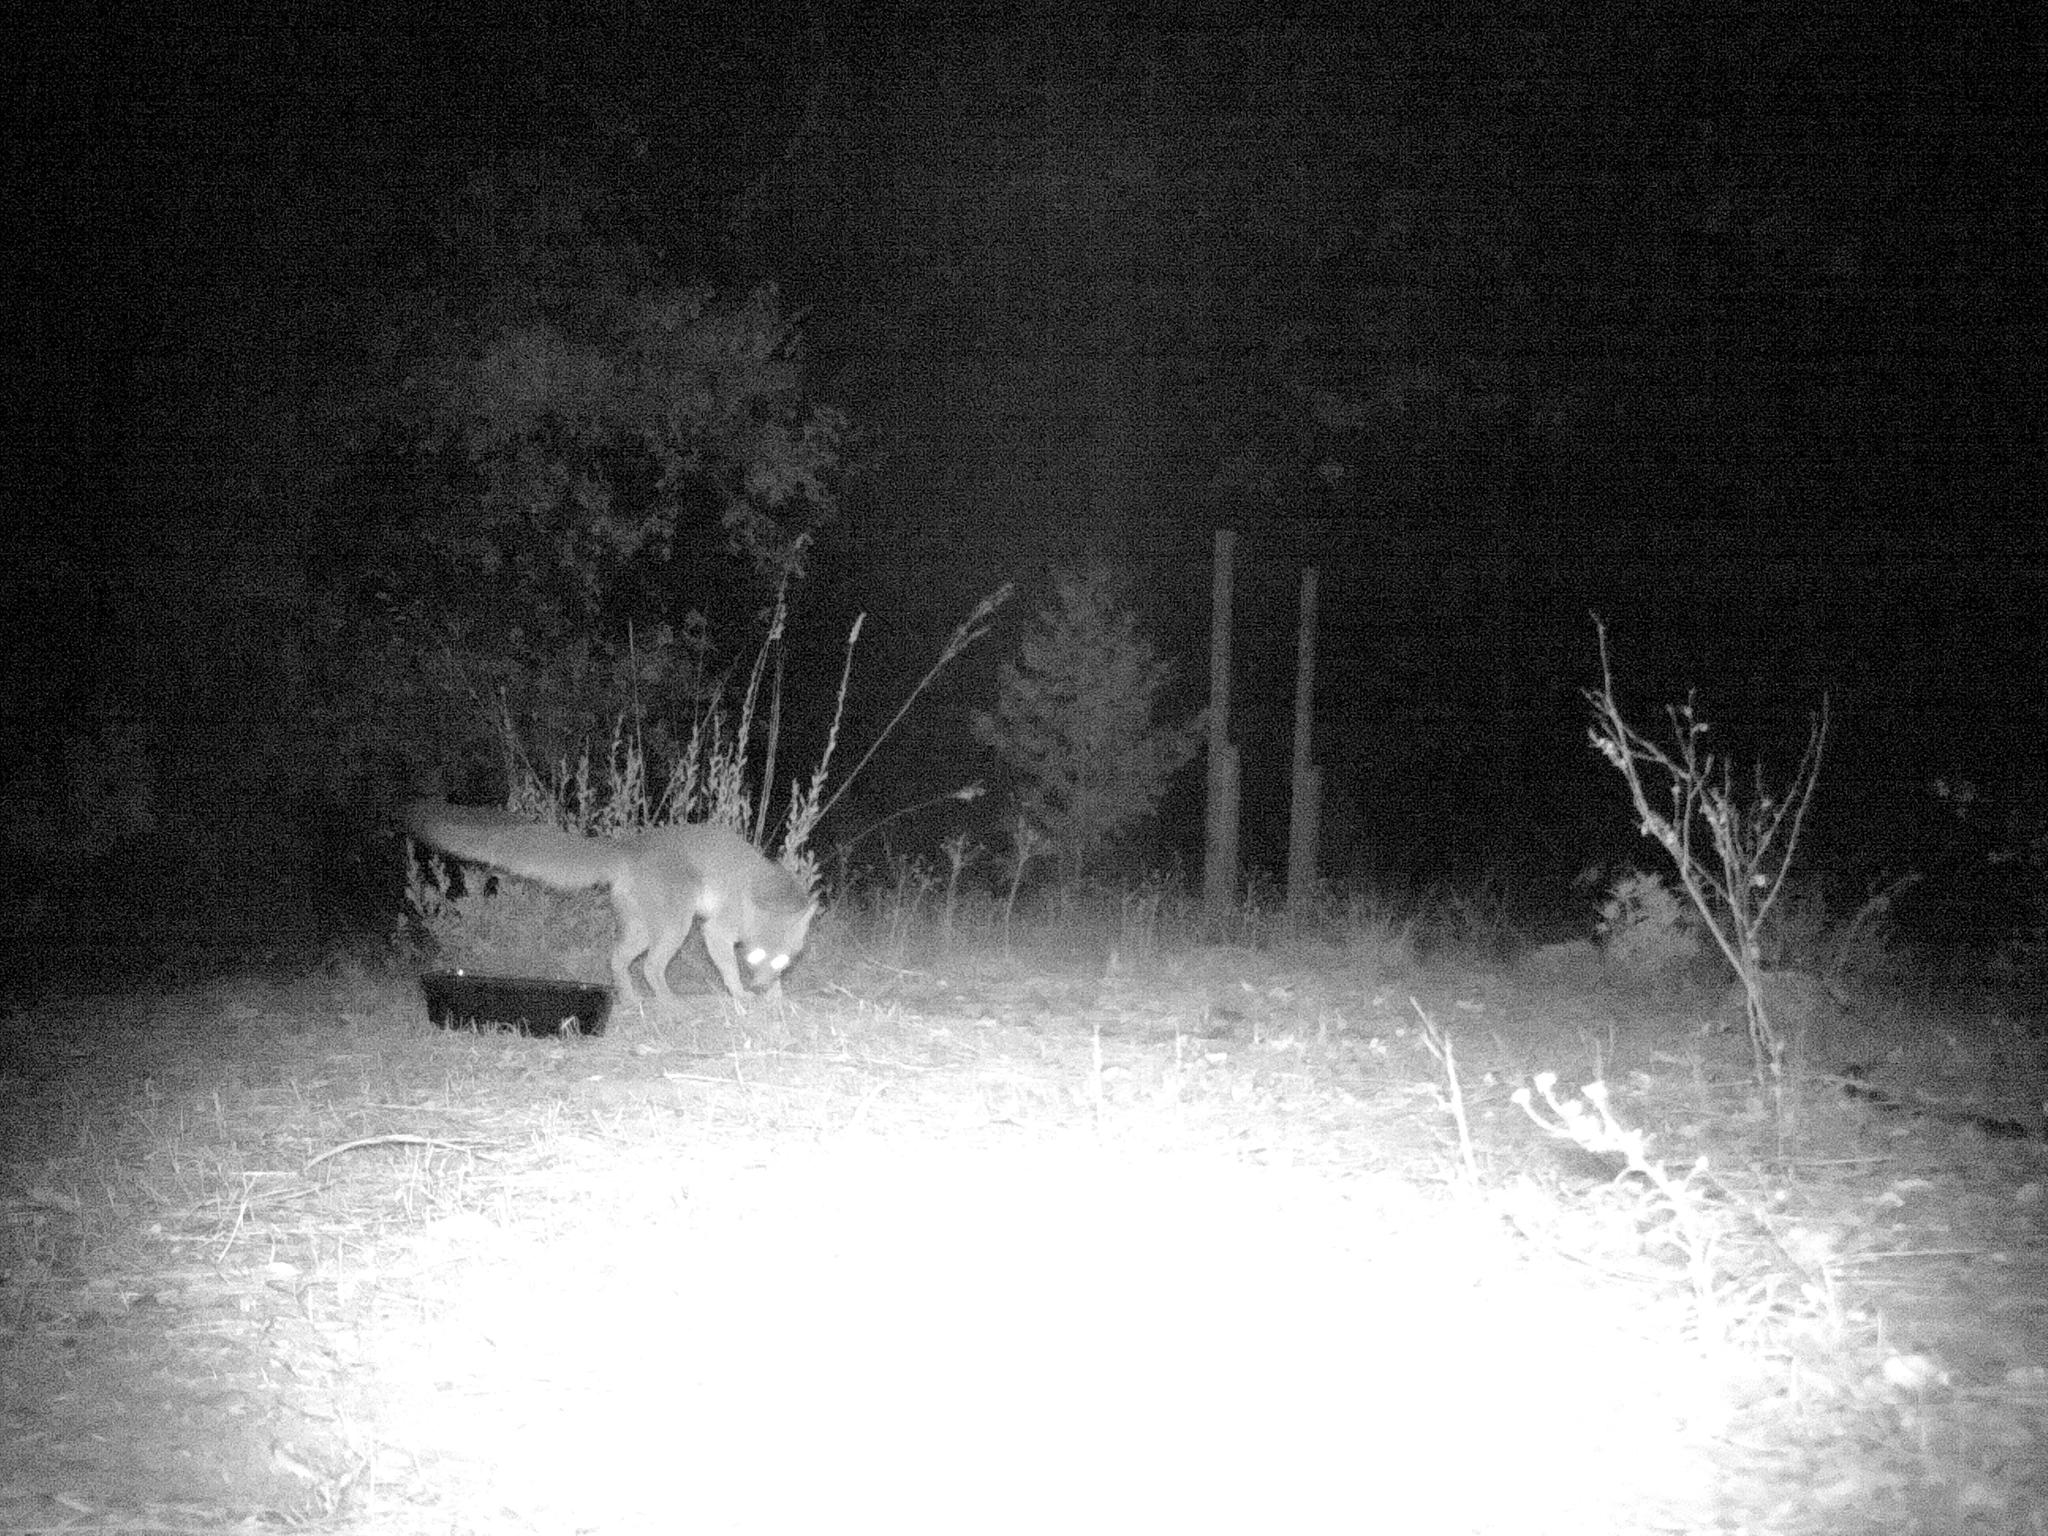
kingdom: Animalia
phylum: Chordata
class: Mammalia
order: Carnivora
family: Canidae
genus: Urocyon
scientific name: Urocyon cinereoargenteus
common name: Gray fox
